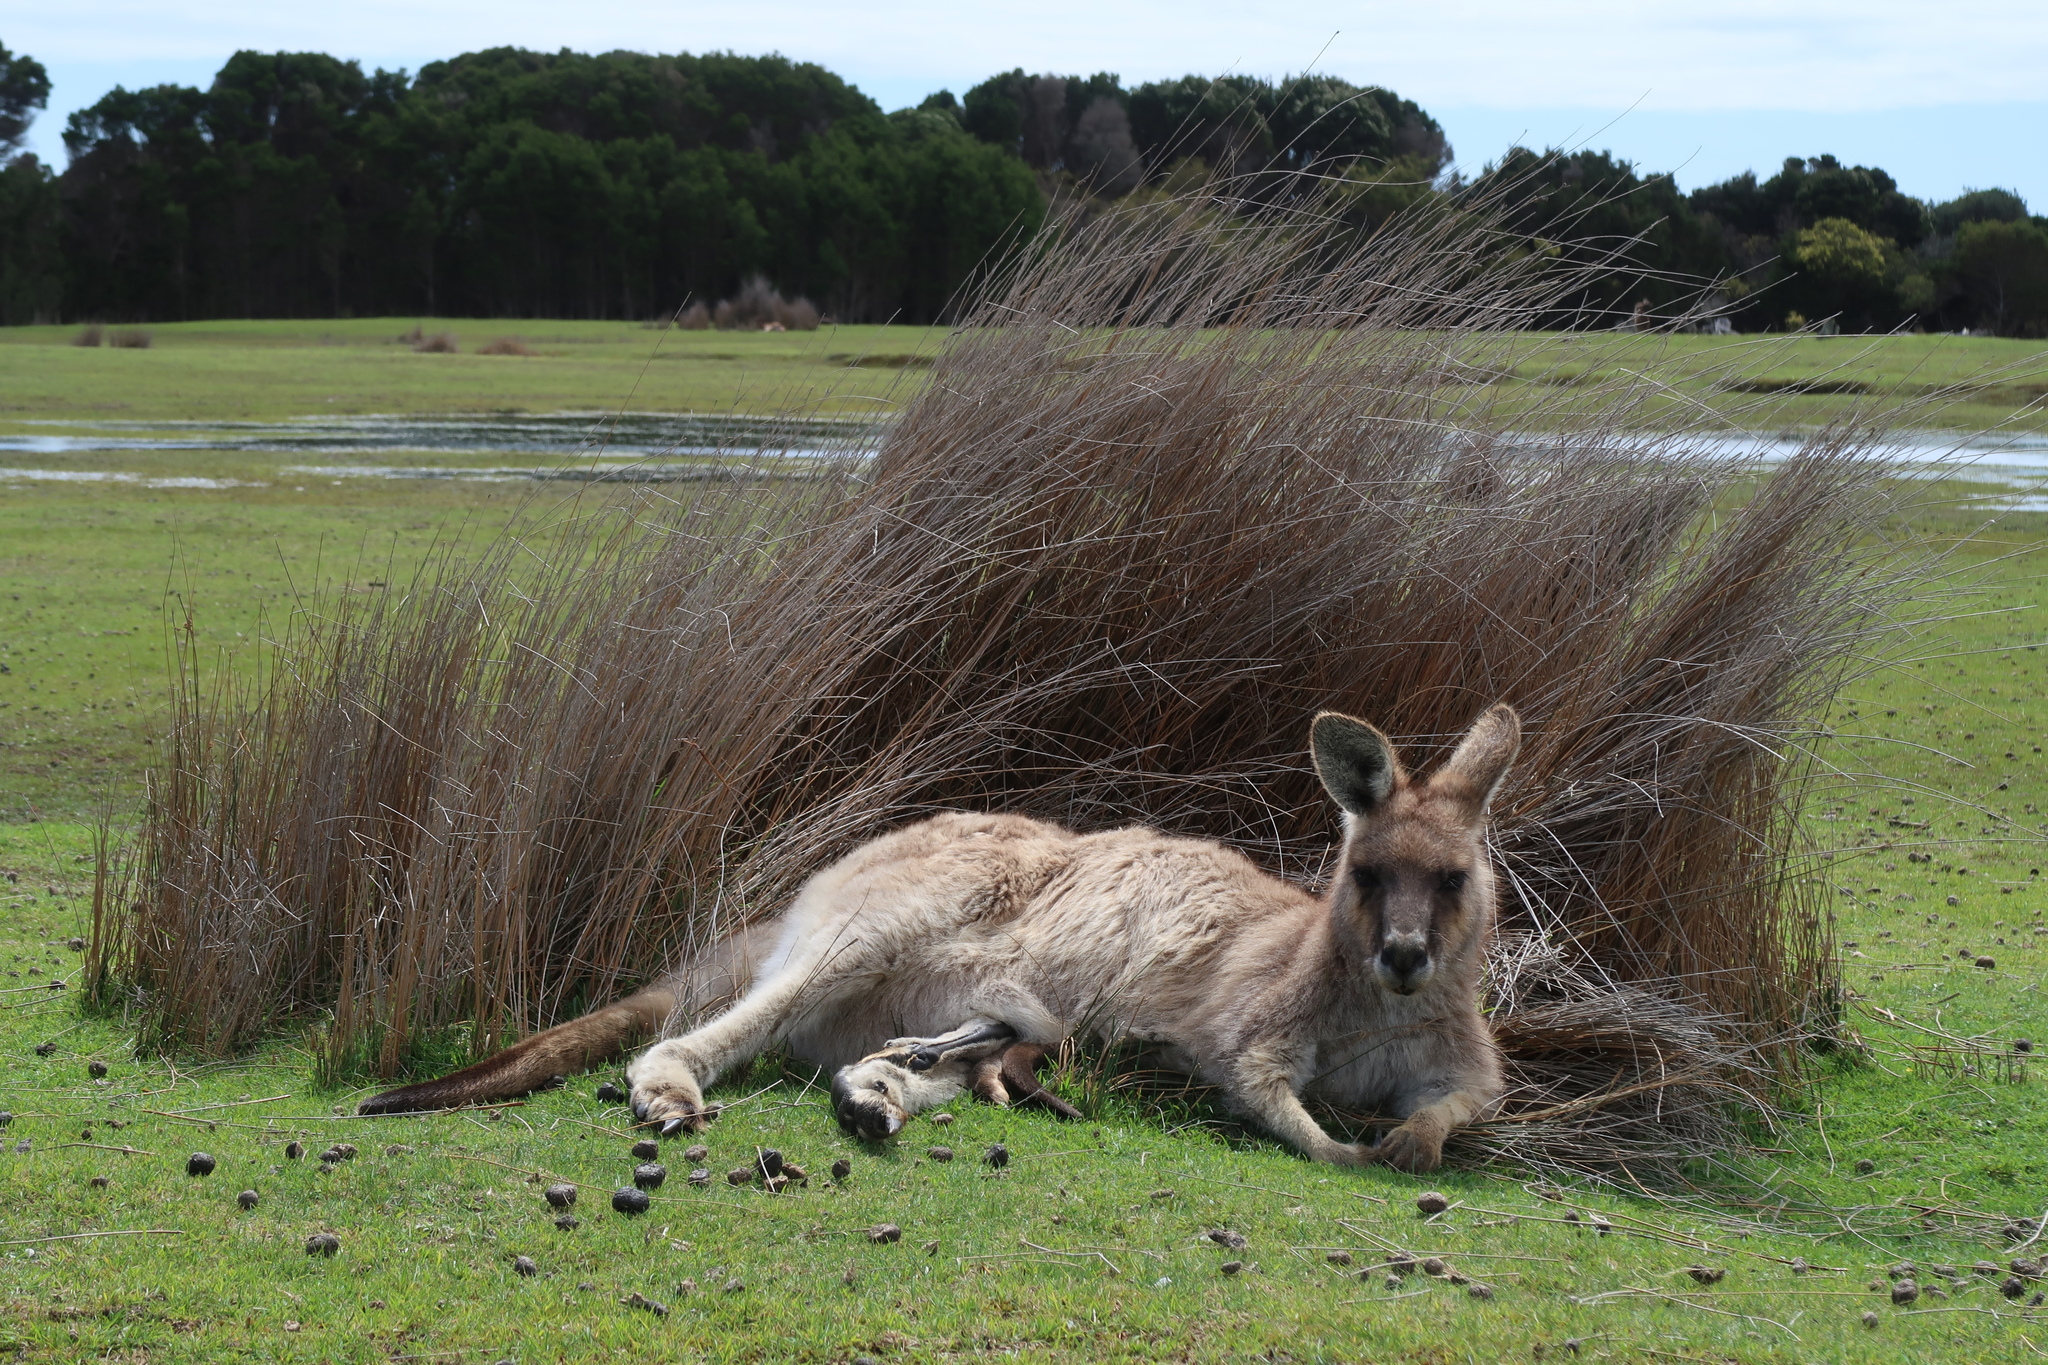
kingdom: Animalia
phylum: Chordata
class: Mammalia
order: Diprotodontia
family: Macropodidae
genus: Macropus
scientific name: Macropus giganteus
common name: Eastern grey kangaroo
